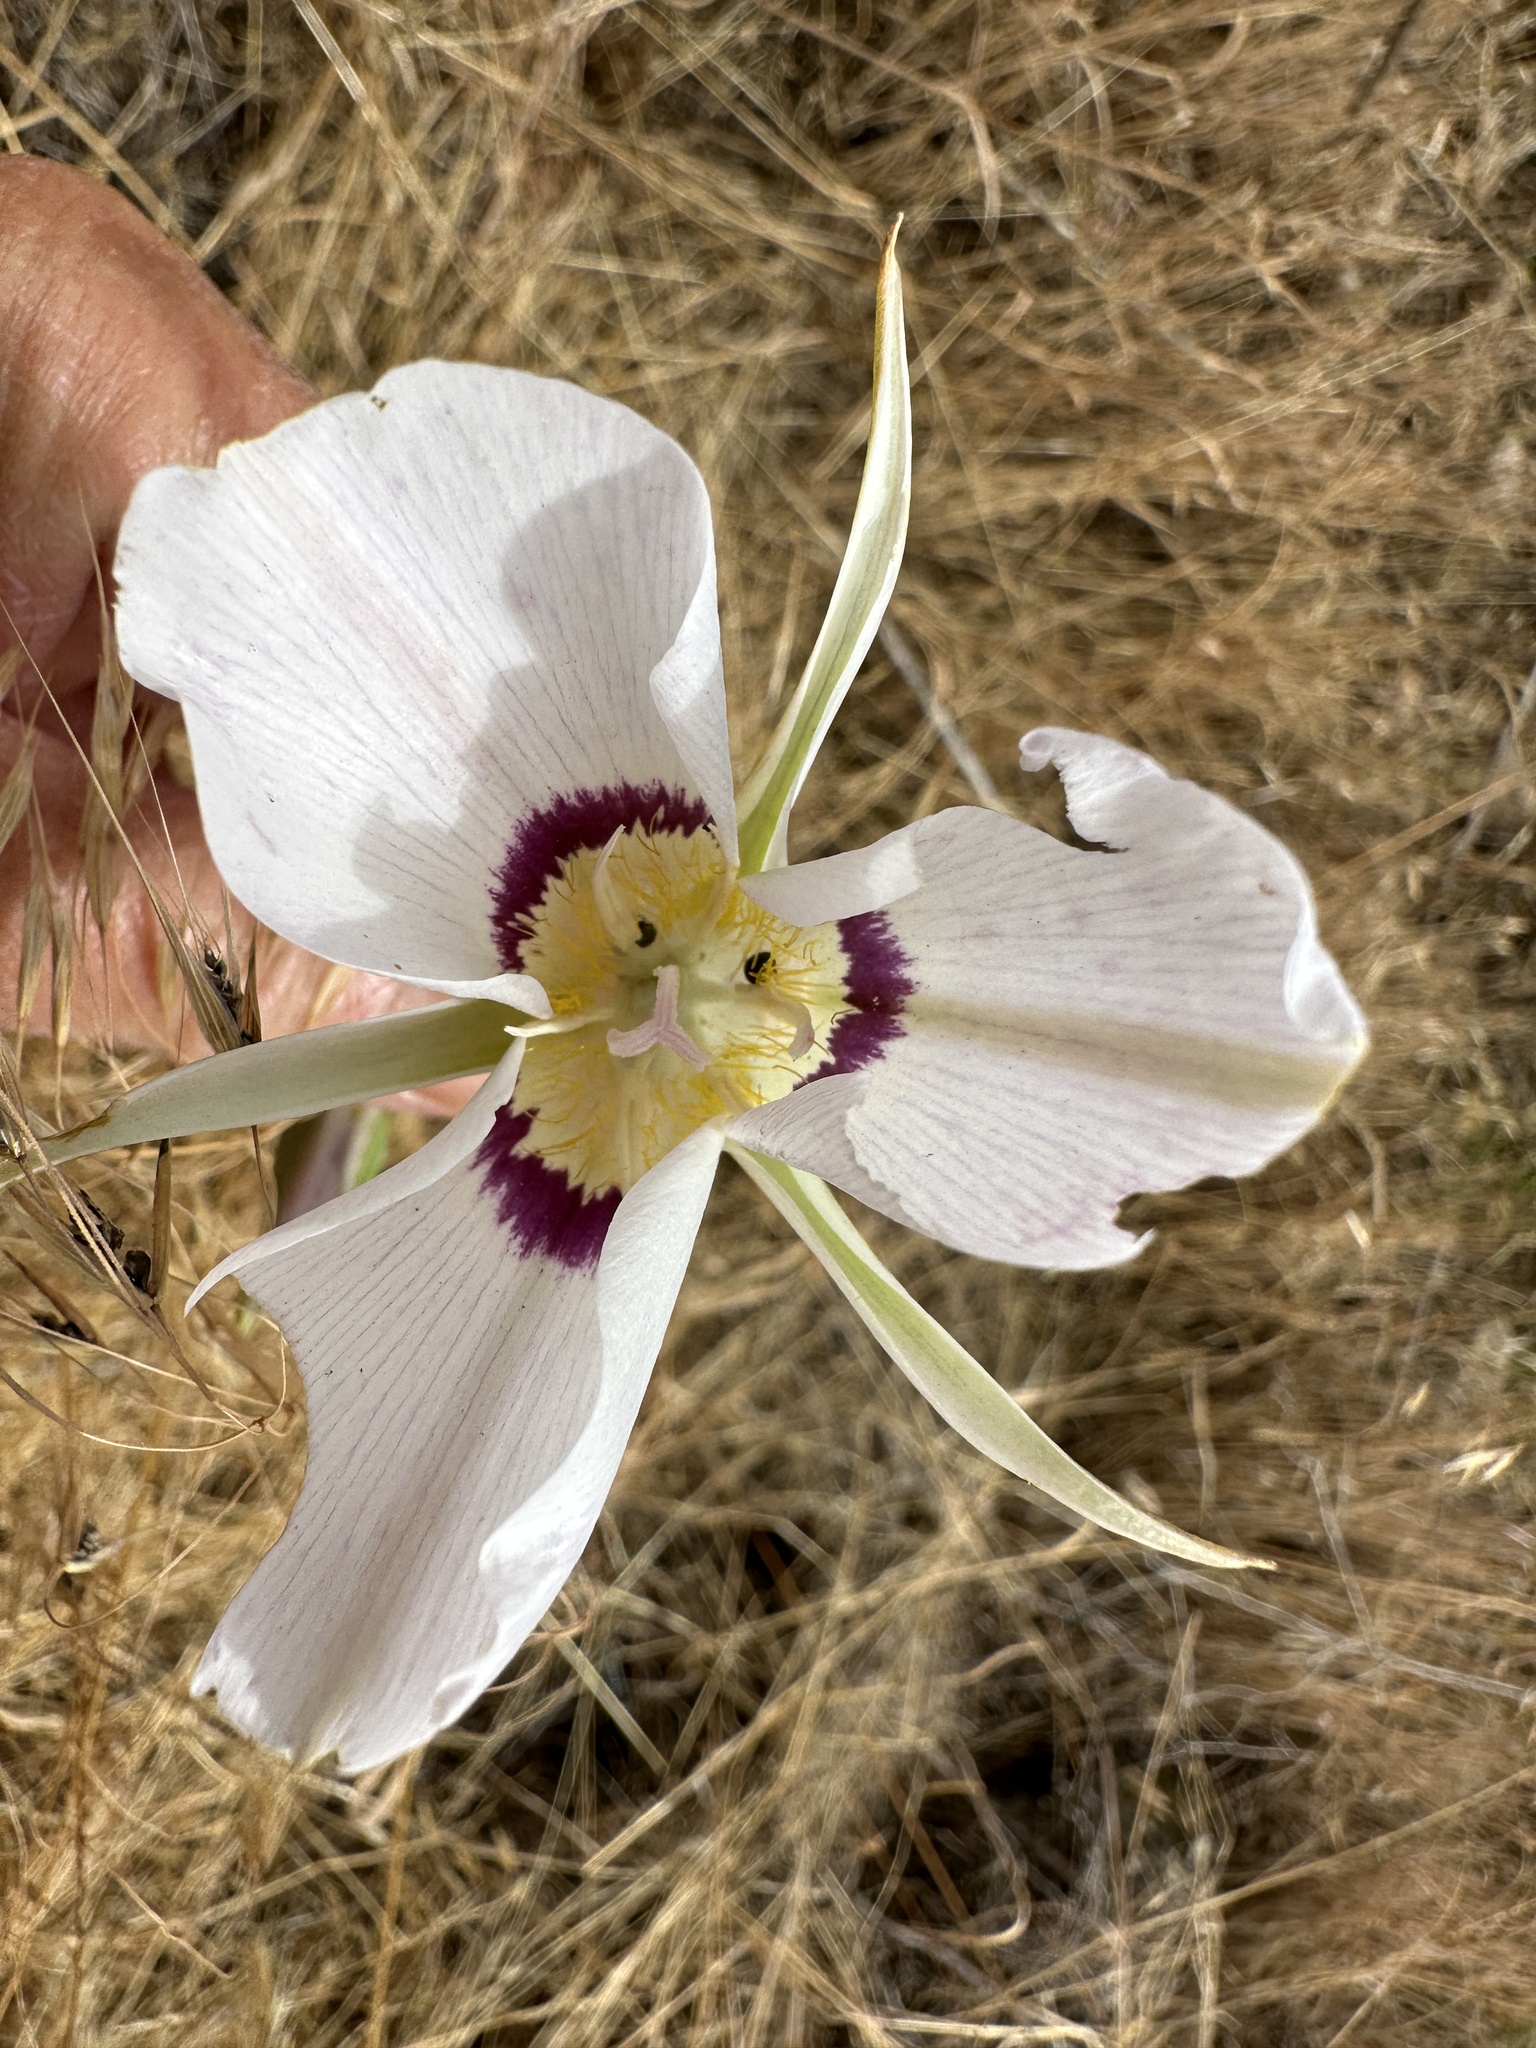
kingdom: Plantae
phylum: Tracheophyta
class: Liliopsida
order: Liliales
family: Liliaceae
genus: Calochortus
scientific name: Calochortus macrocarpus
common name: Green-band mariposa lily
